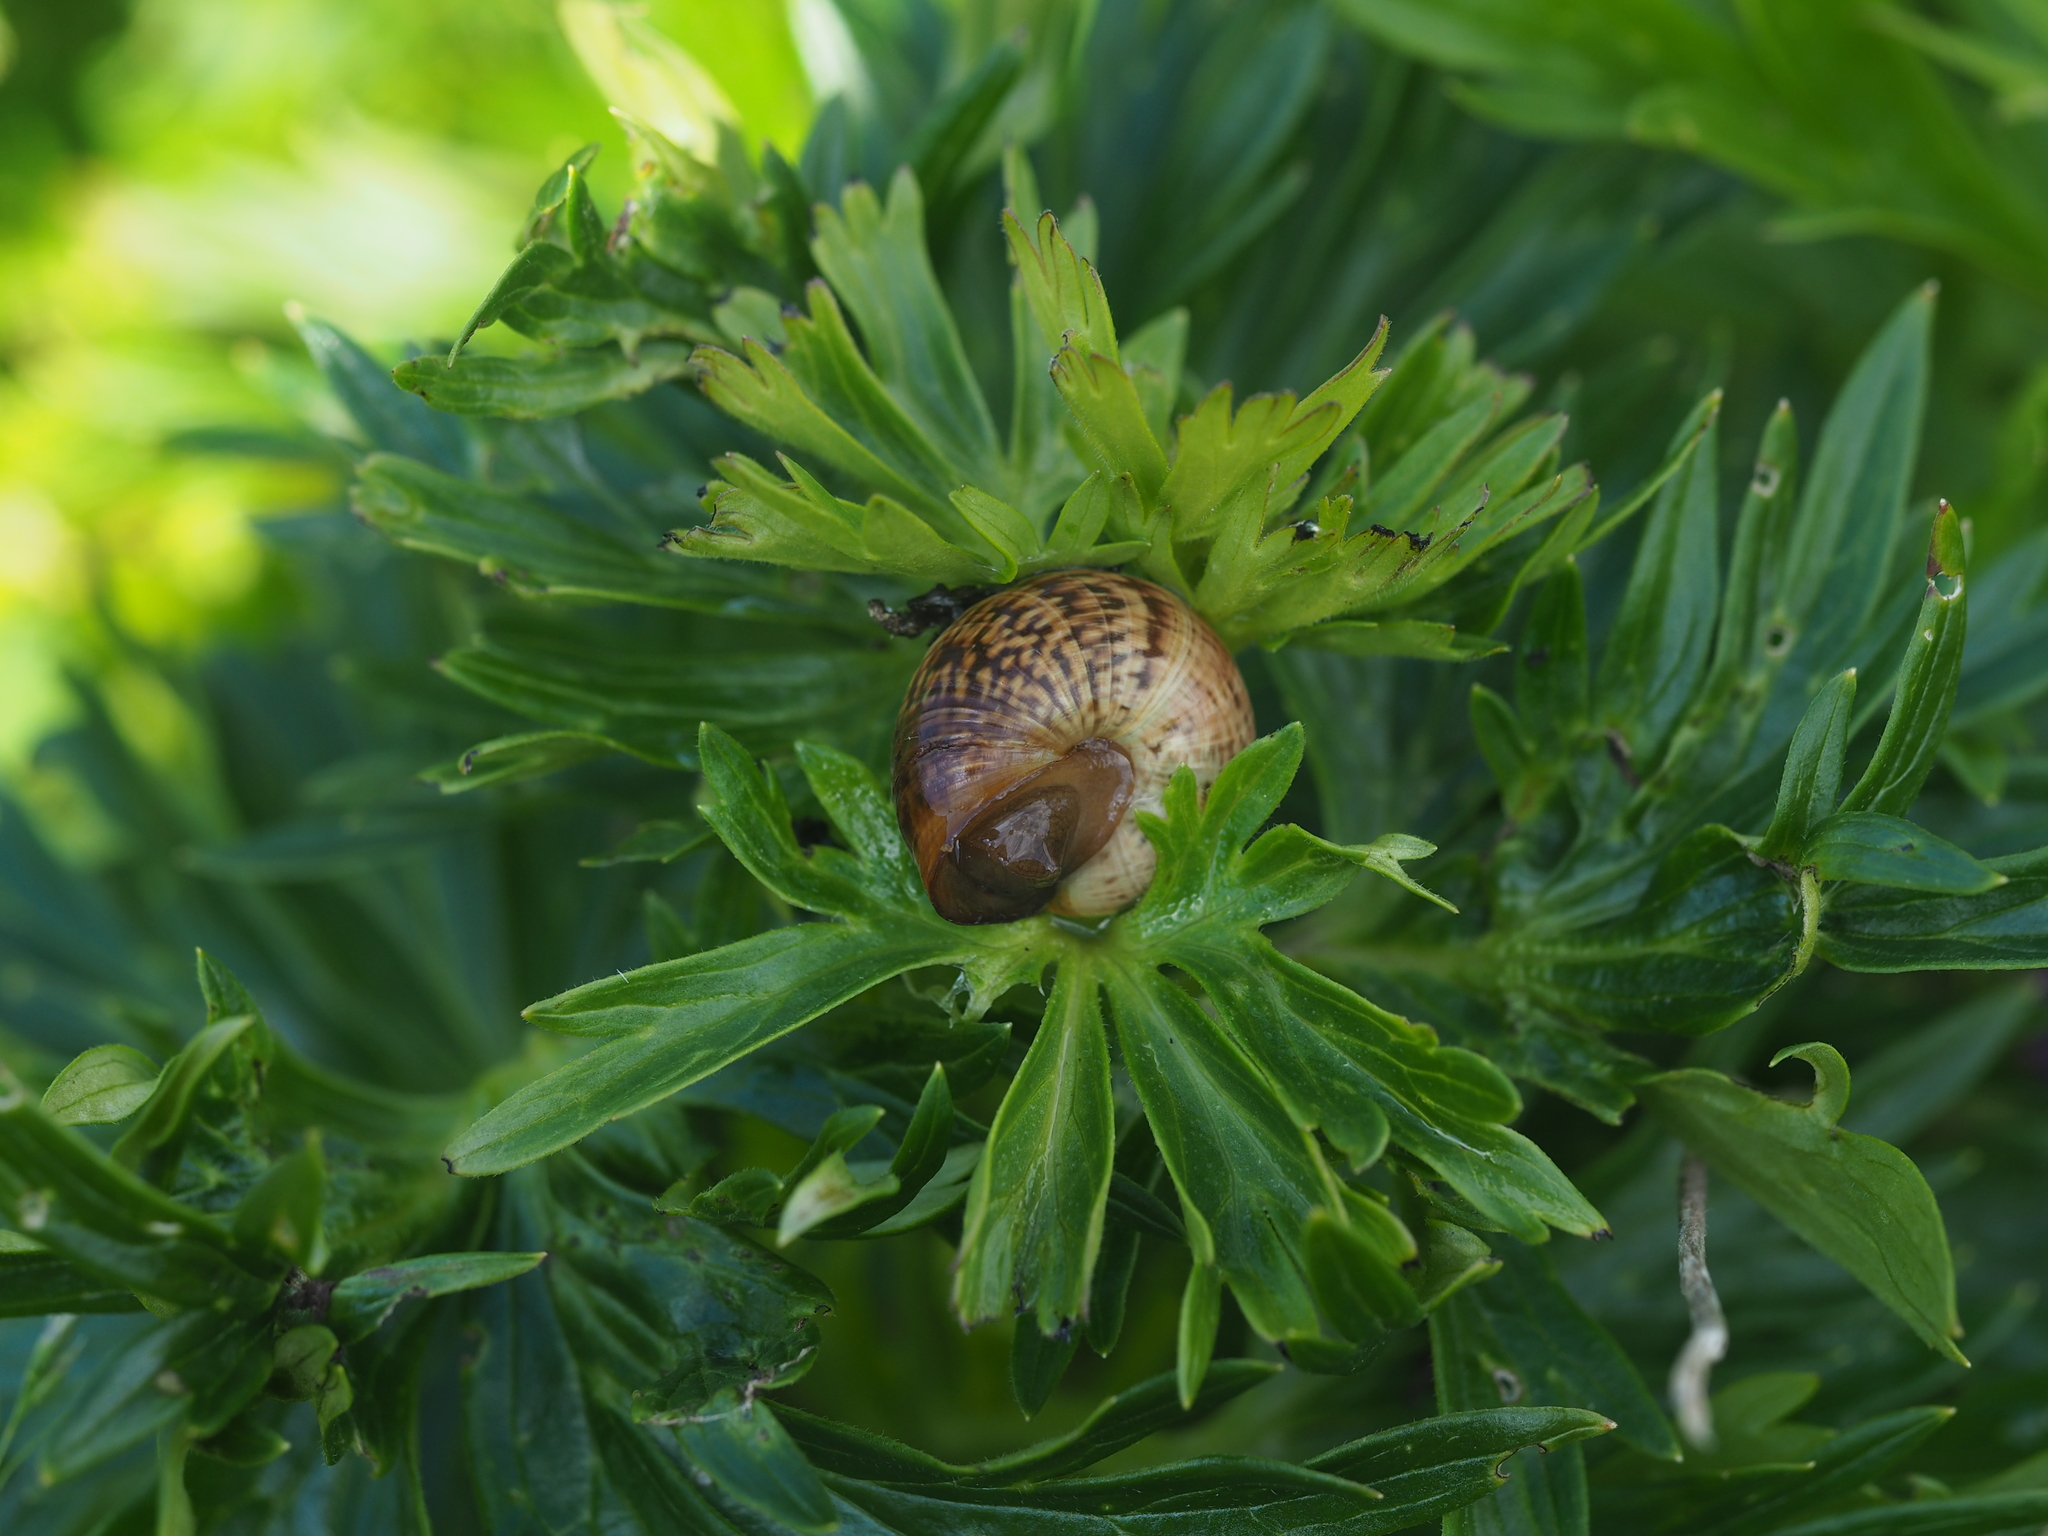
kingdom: Animalia
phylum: Mollusca
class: Gastropoda
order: Stylommatophora
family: Helicidae
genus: Arianta
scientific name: Arianta arbustorum
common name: Copse snail
